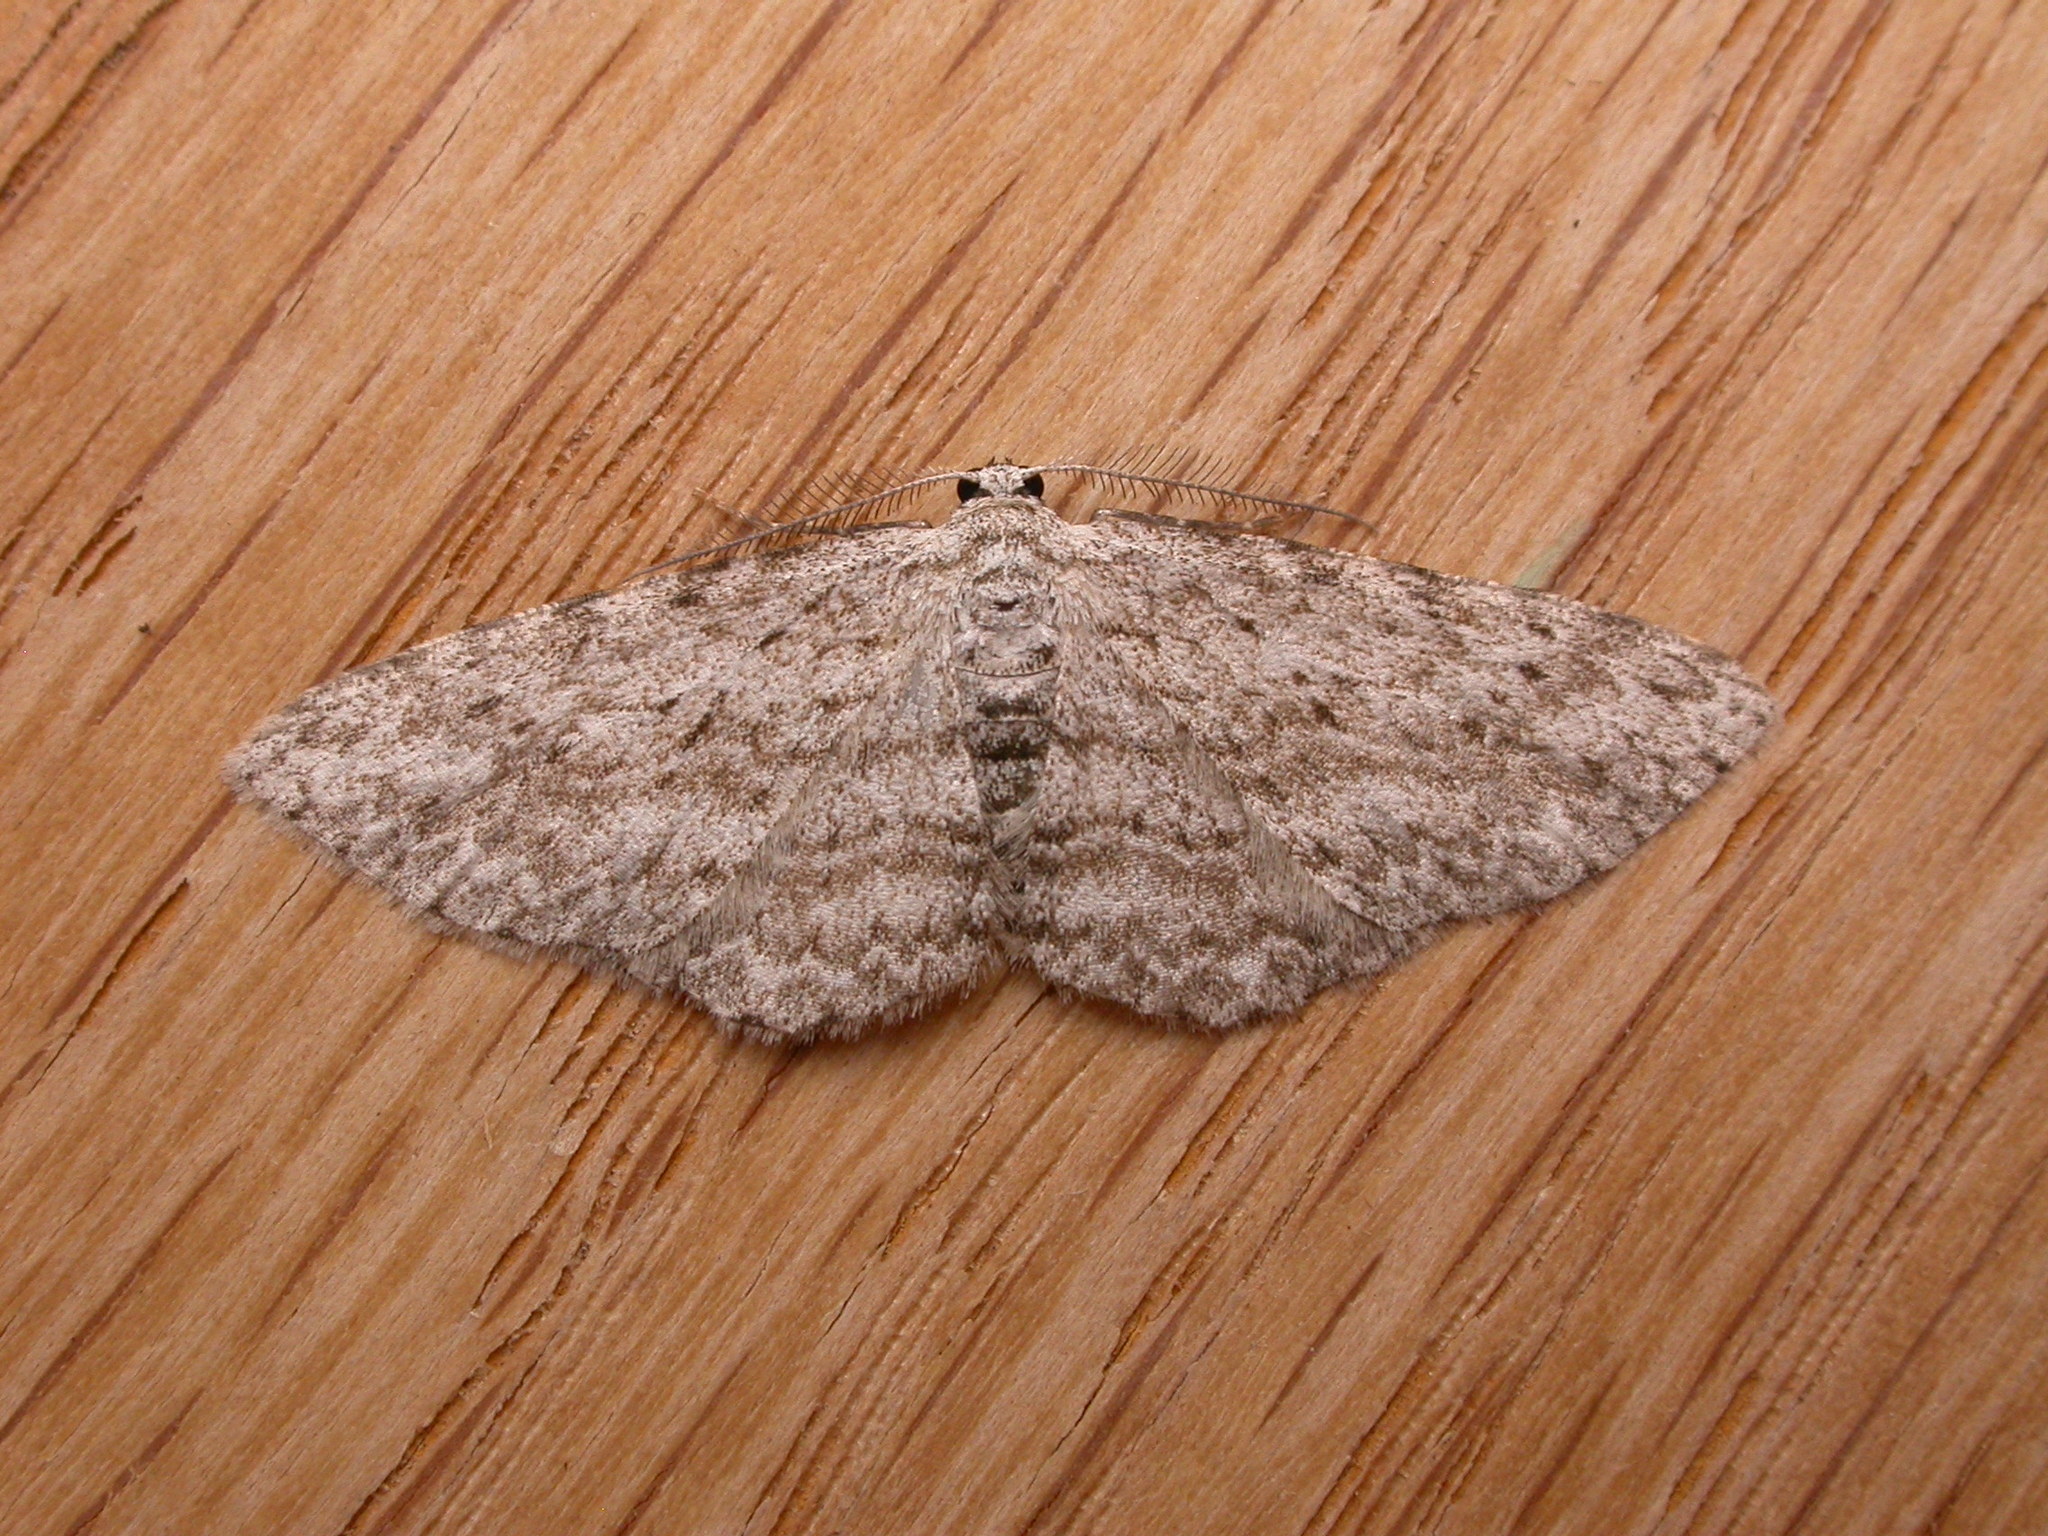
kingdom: Animalia
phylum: Arthropoda
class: Insecta
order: Lepidoptera
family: Geometridae
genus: Phelotis
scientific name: Phelotis cognata
